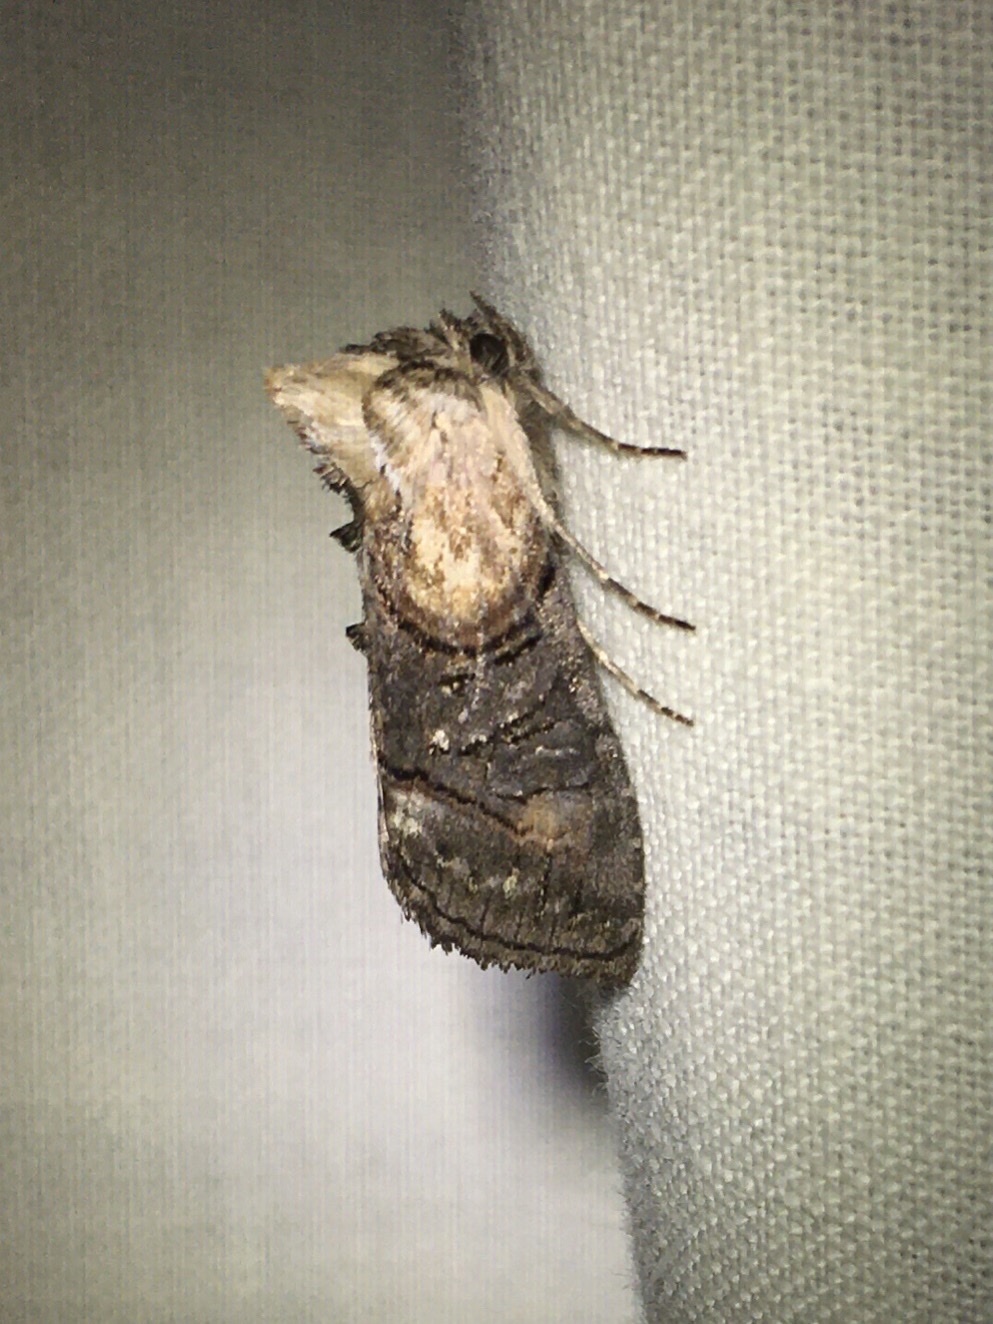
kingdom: Animalia
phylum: Arthropoda
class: Insecta
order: Lepidoptera
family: Noctuidae
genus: Abrostola
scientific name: Abrostola ovalis
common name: Oval abrostola
